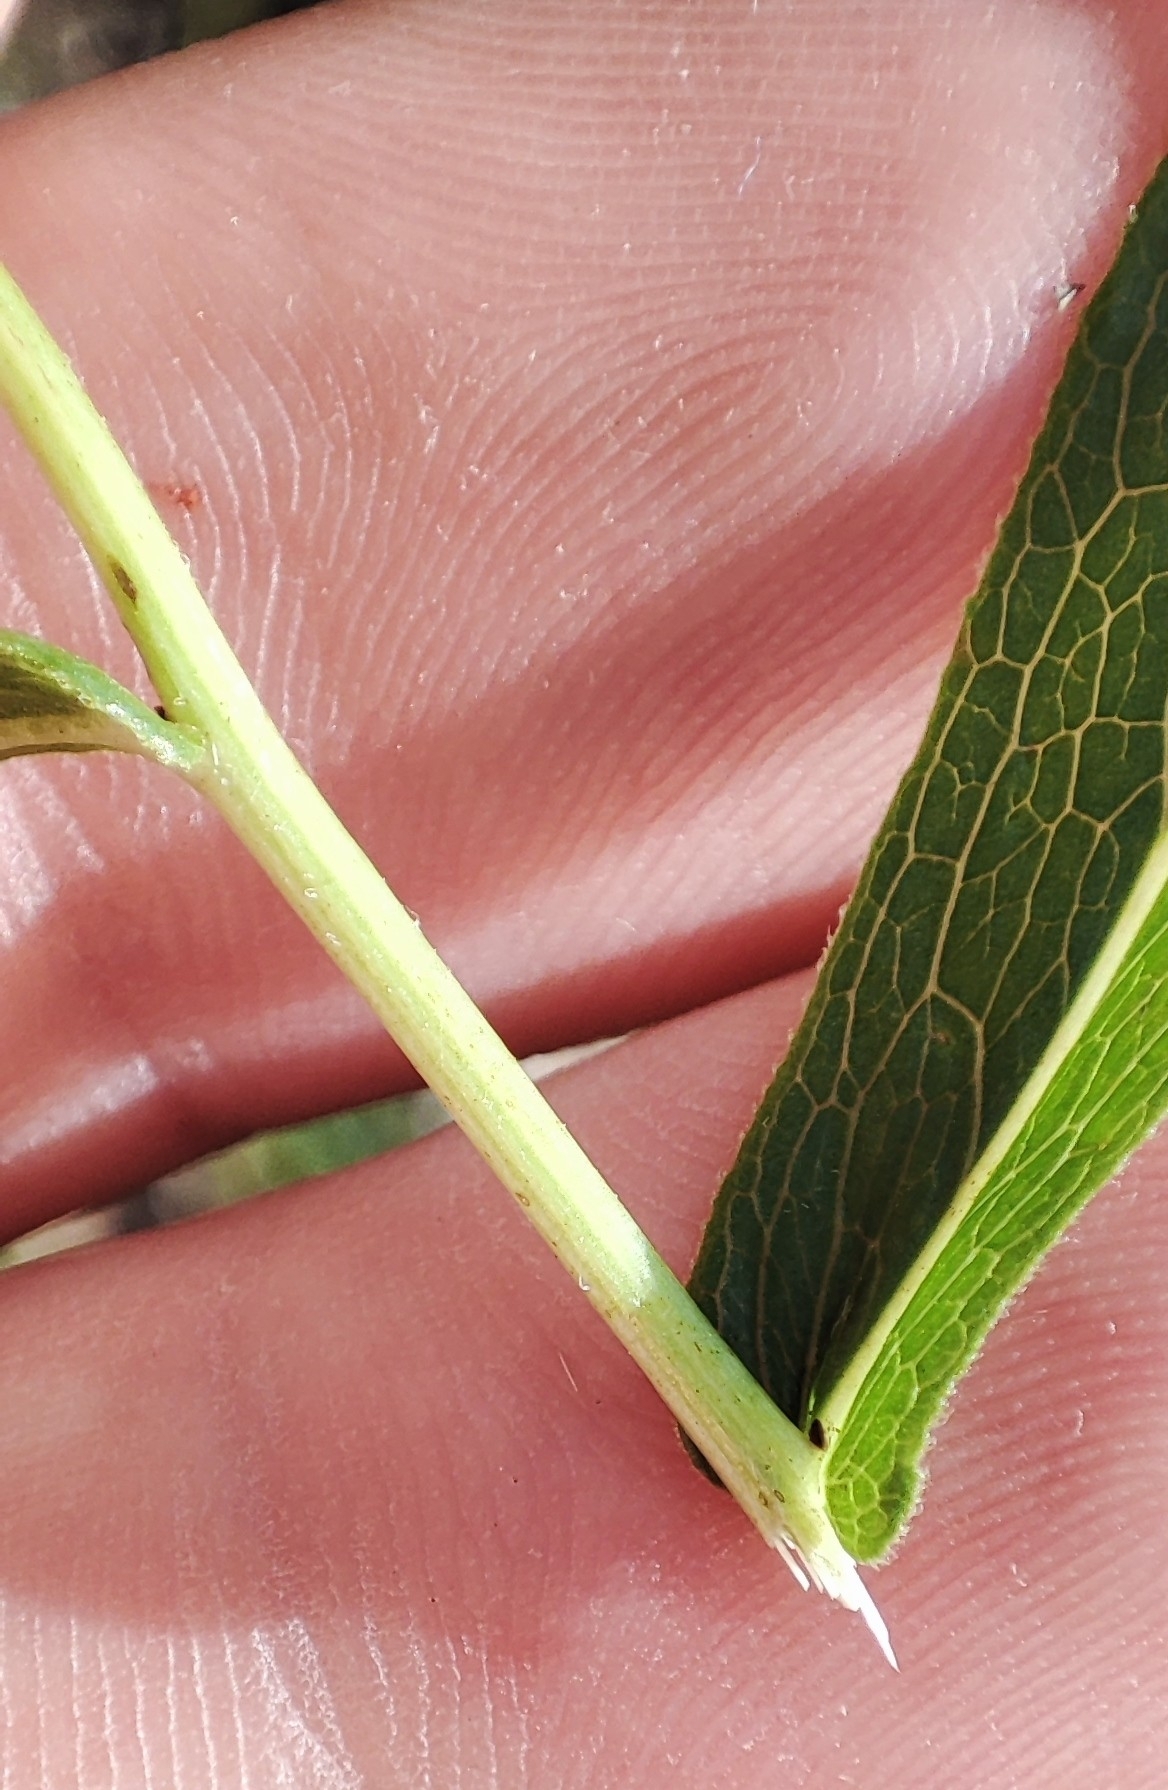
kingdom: Plantae
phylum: Tracheophyta
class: Magnoliopsida
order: Asterales
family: Asteraceae
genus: Pentanema
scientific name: Pentanema salicinum
